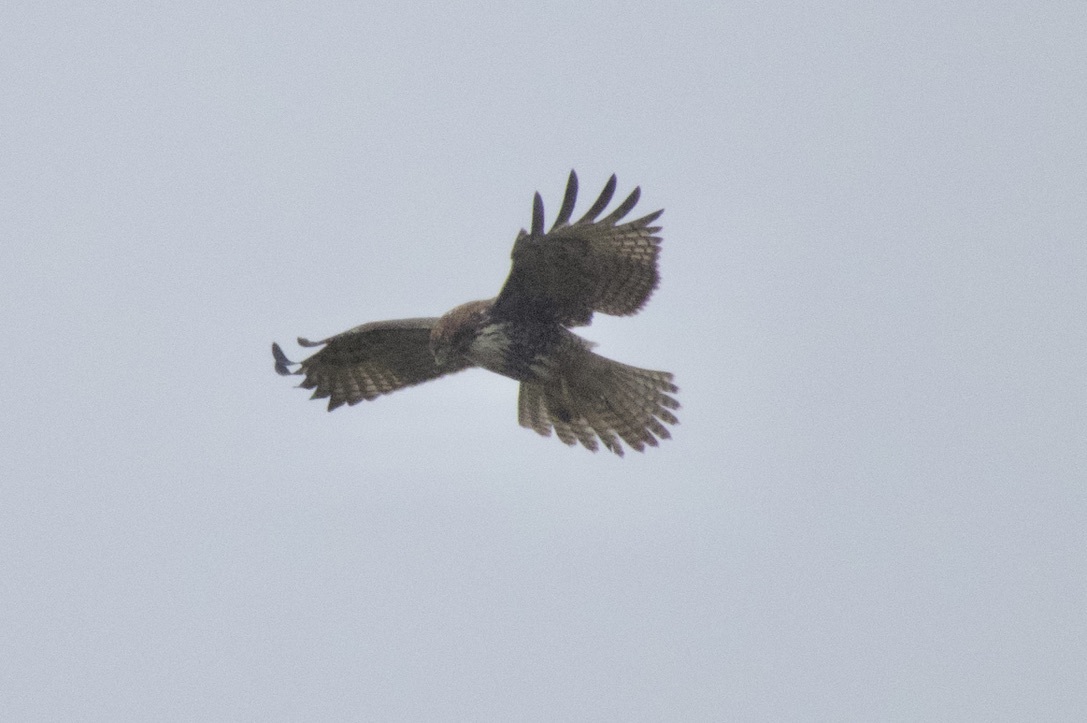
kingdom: Animalia
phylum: Chordata
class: Aves
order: Accipitriformes
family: Accipitridae
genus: Buteo
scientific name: Buteo jamaicensis
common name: Red-tailed hawk
